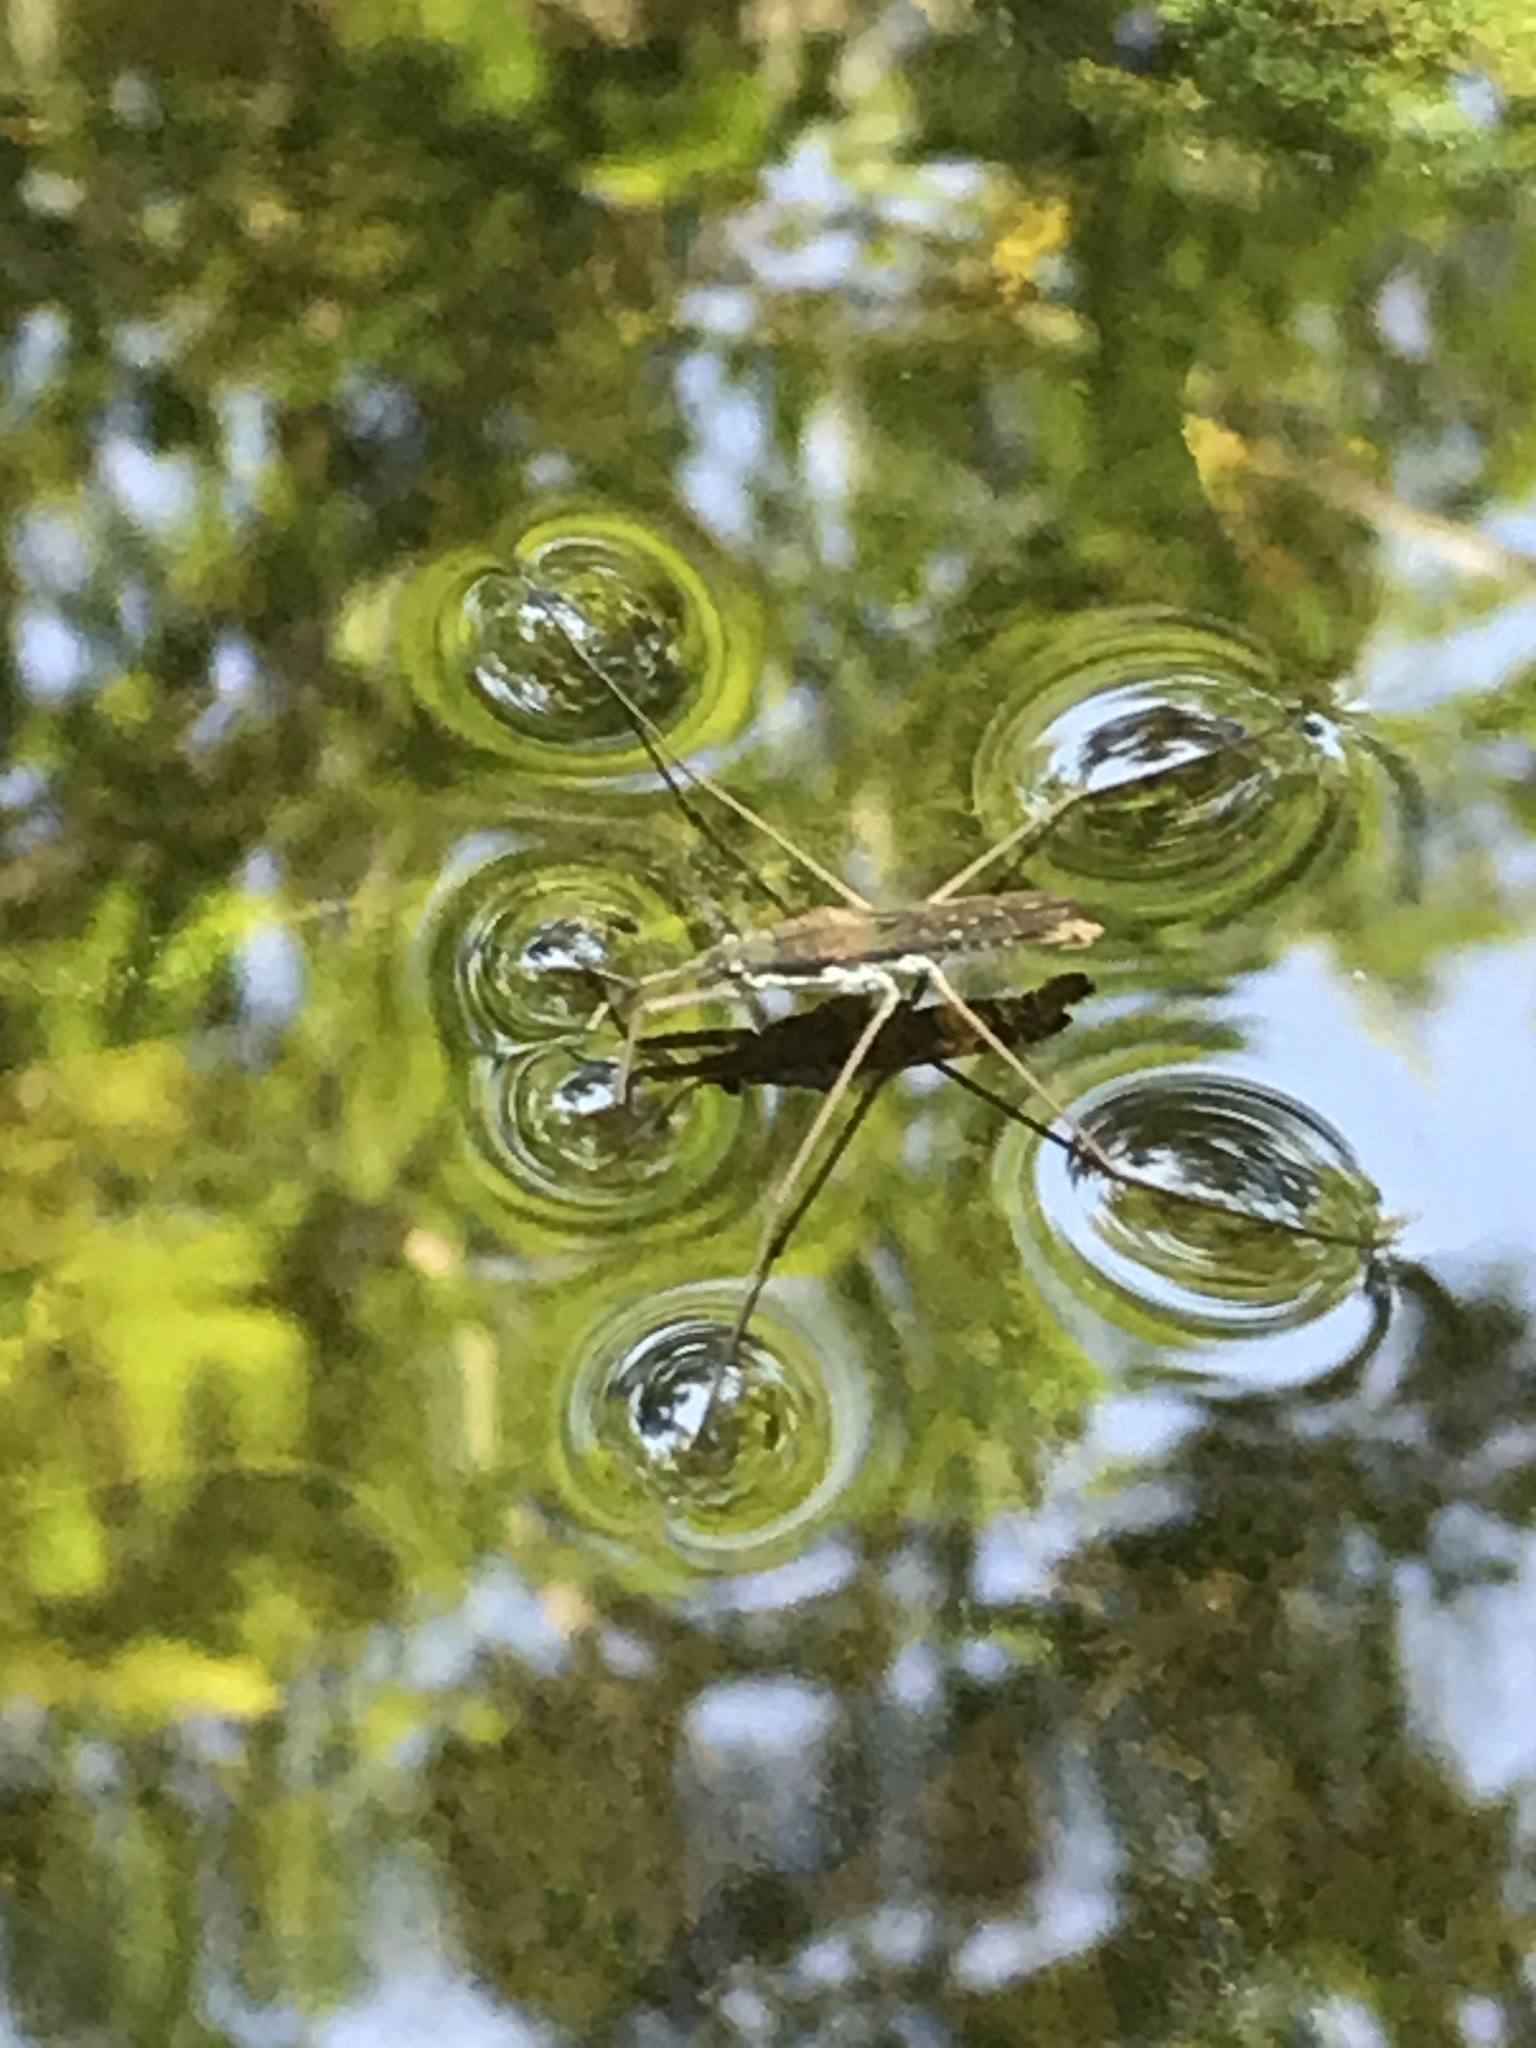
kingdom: Animalia
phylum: Arthropoda
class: Insecta
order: Hemiptera
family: Gerridae
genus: Aquarius
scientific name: Aquarius remigis
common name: Common water strider
